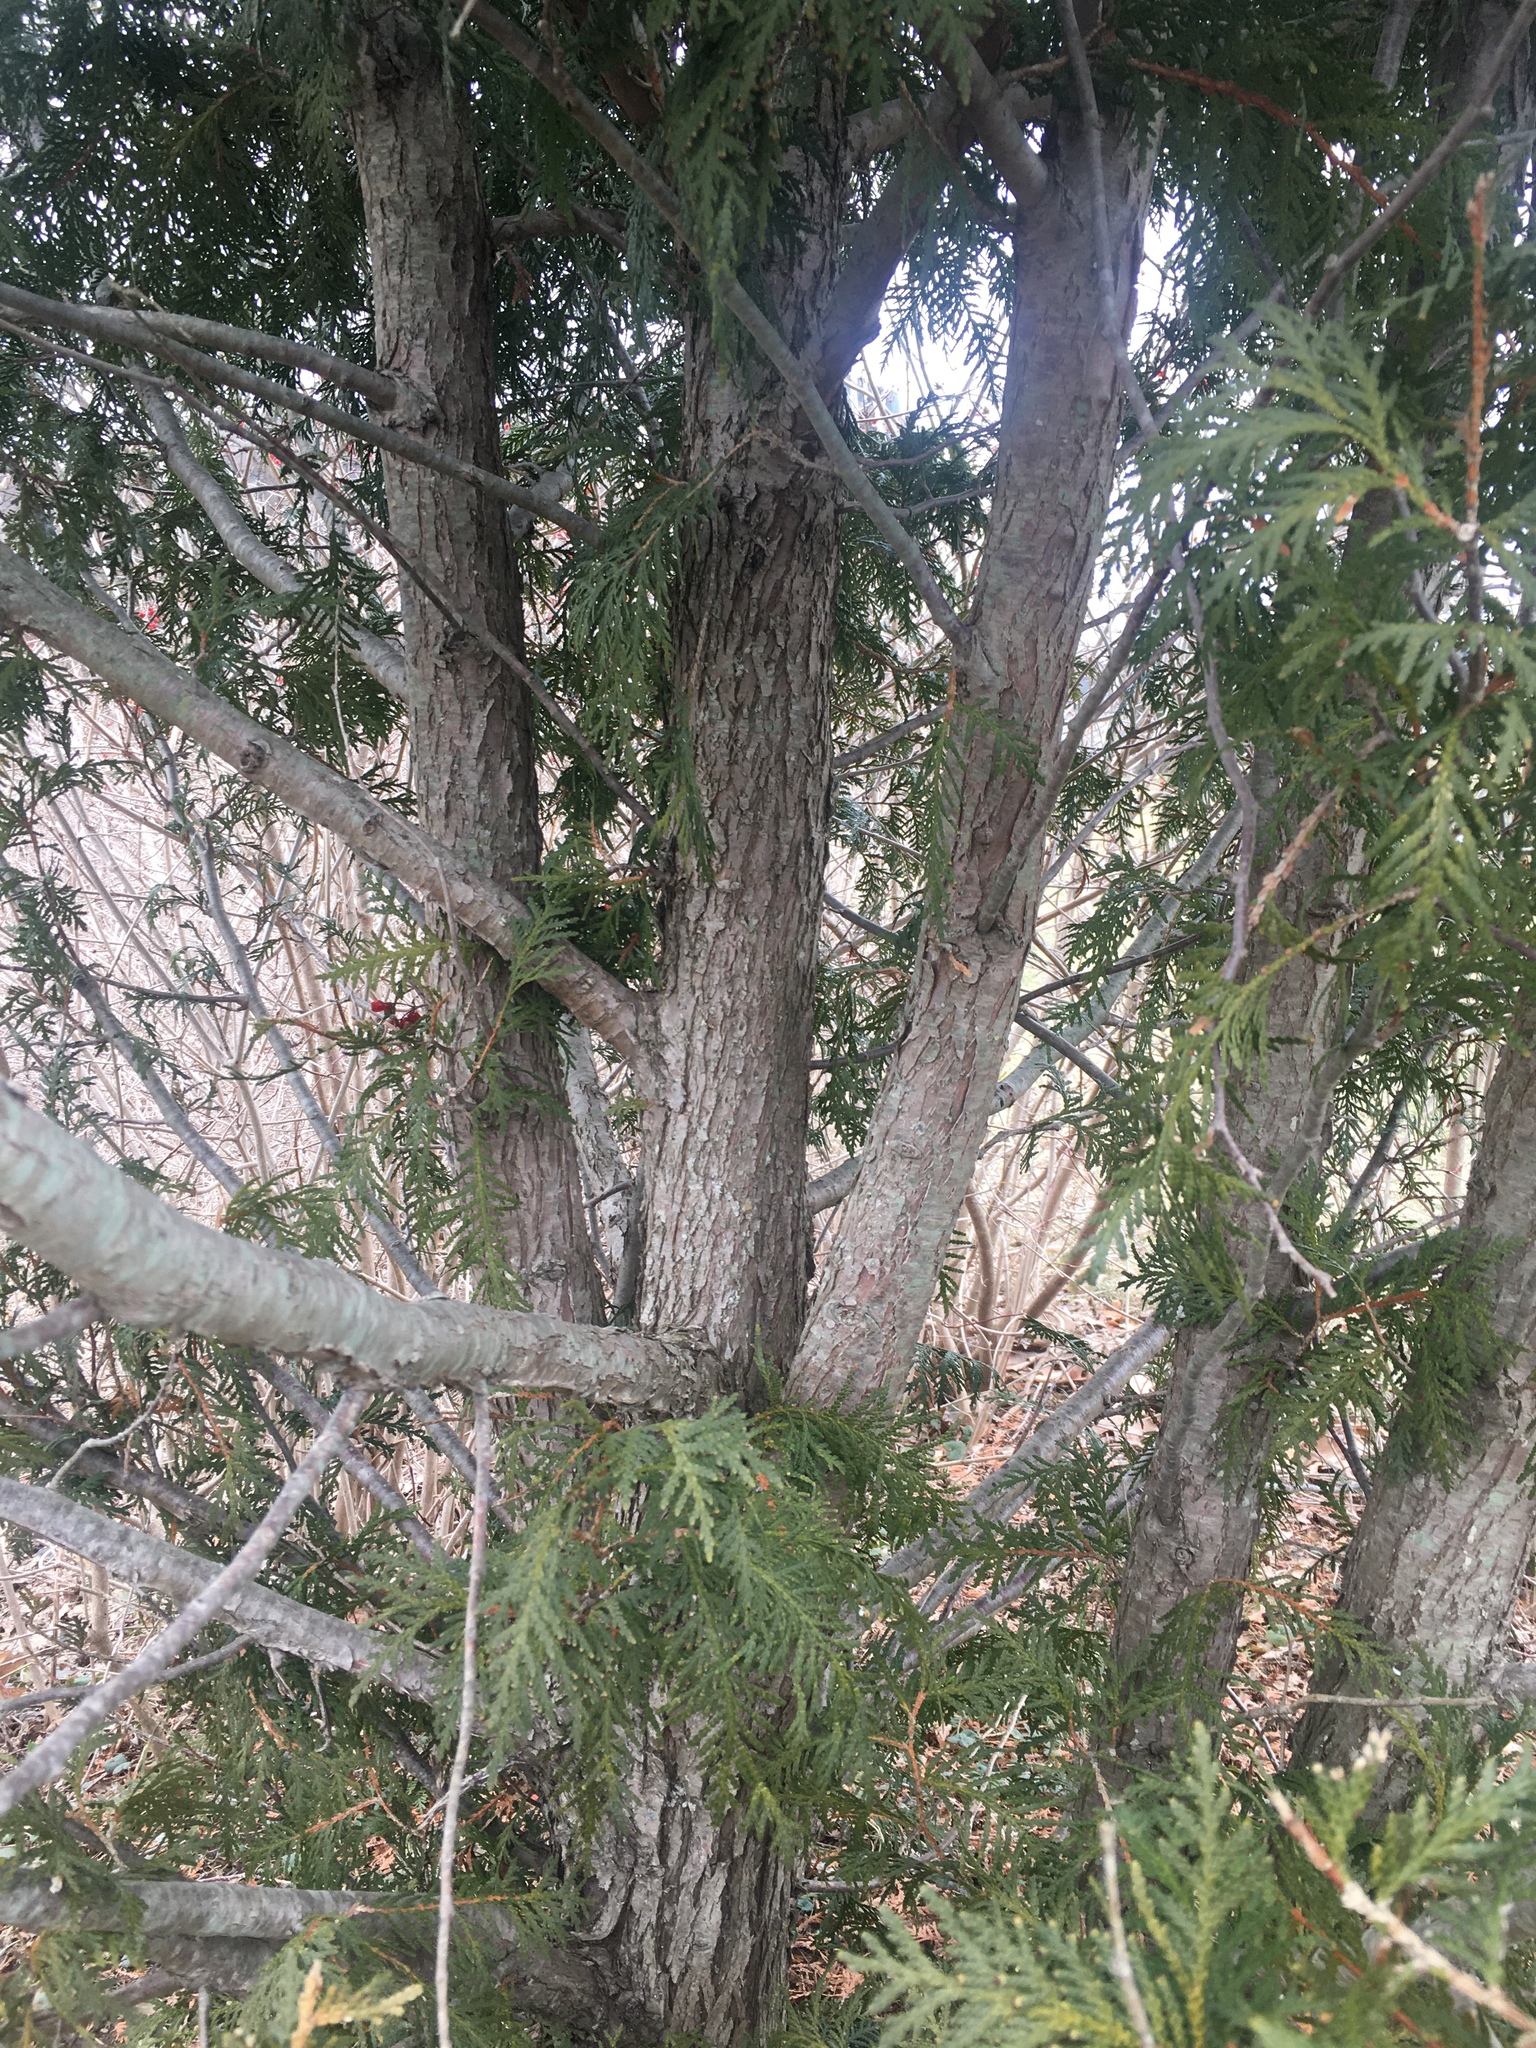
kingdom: Plantae
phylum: Tracheophyta
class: Pinopsida
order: Pinales
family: Cupressaceae
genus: Thuja
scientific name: Thuja occidentalis
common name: Northern white-cedar
